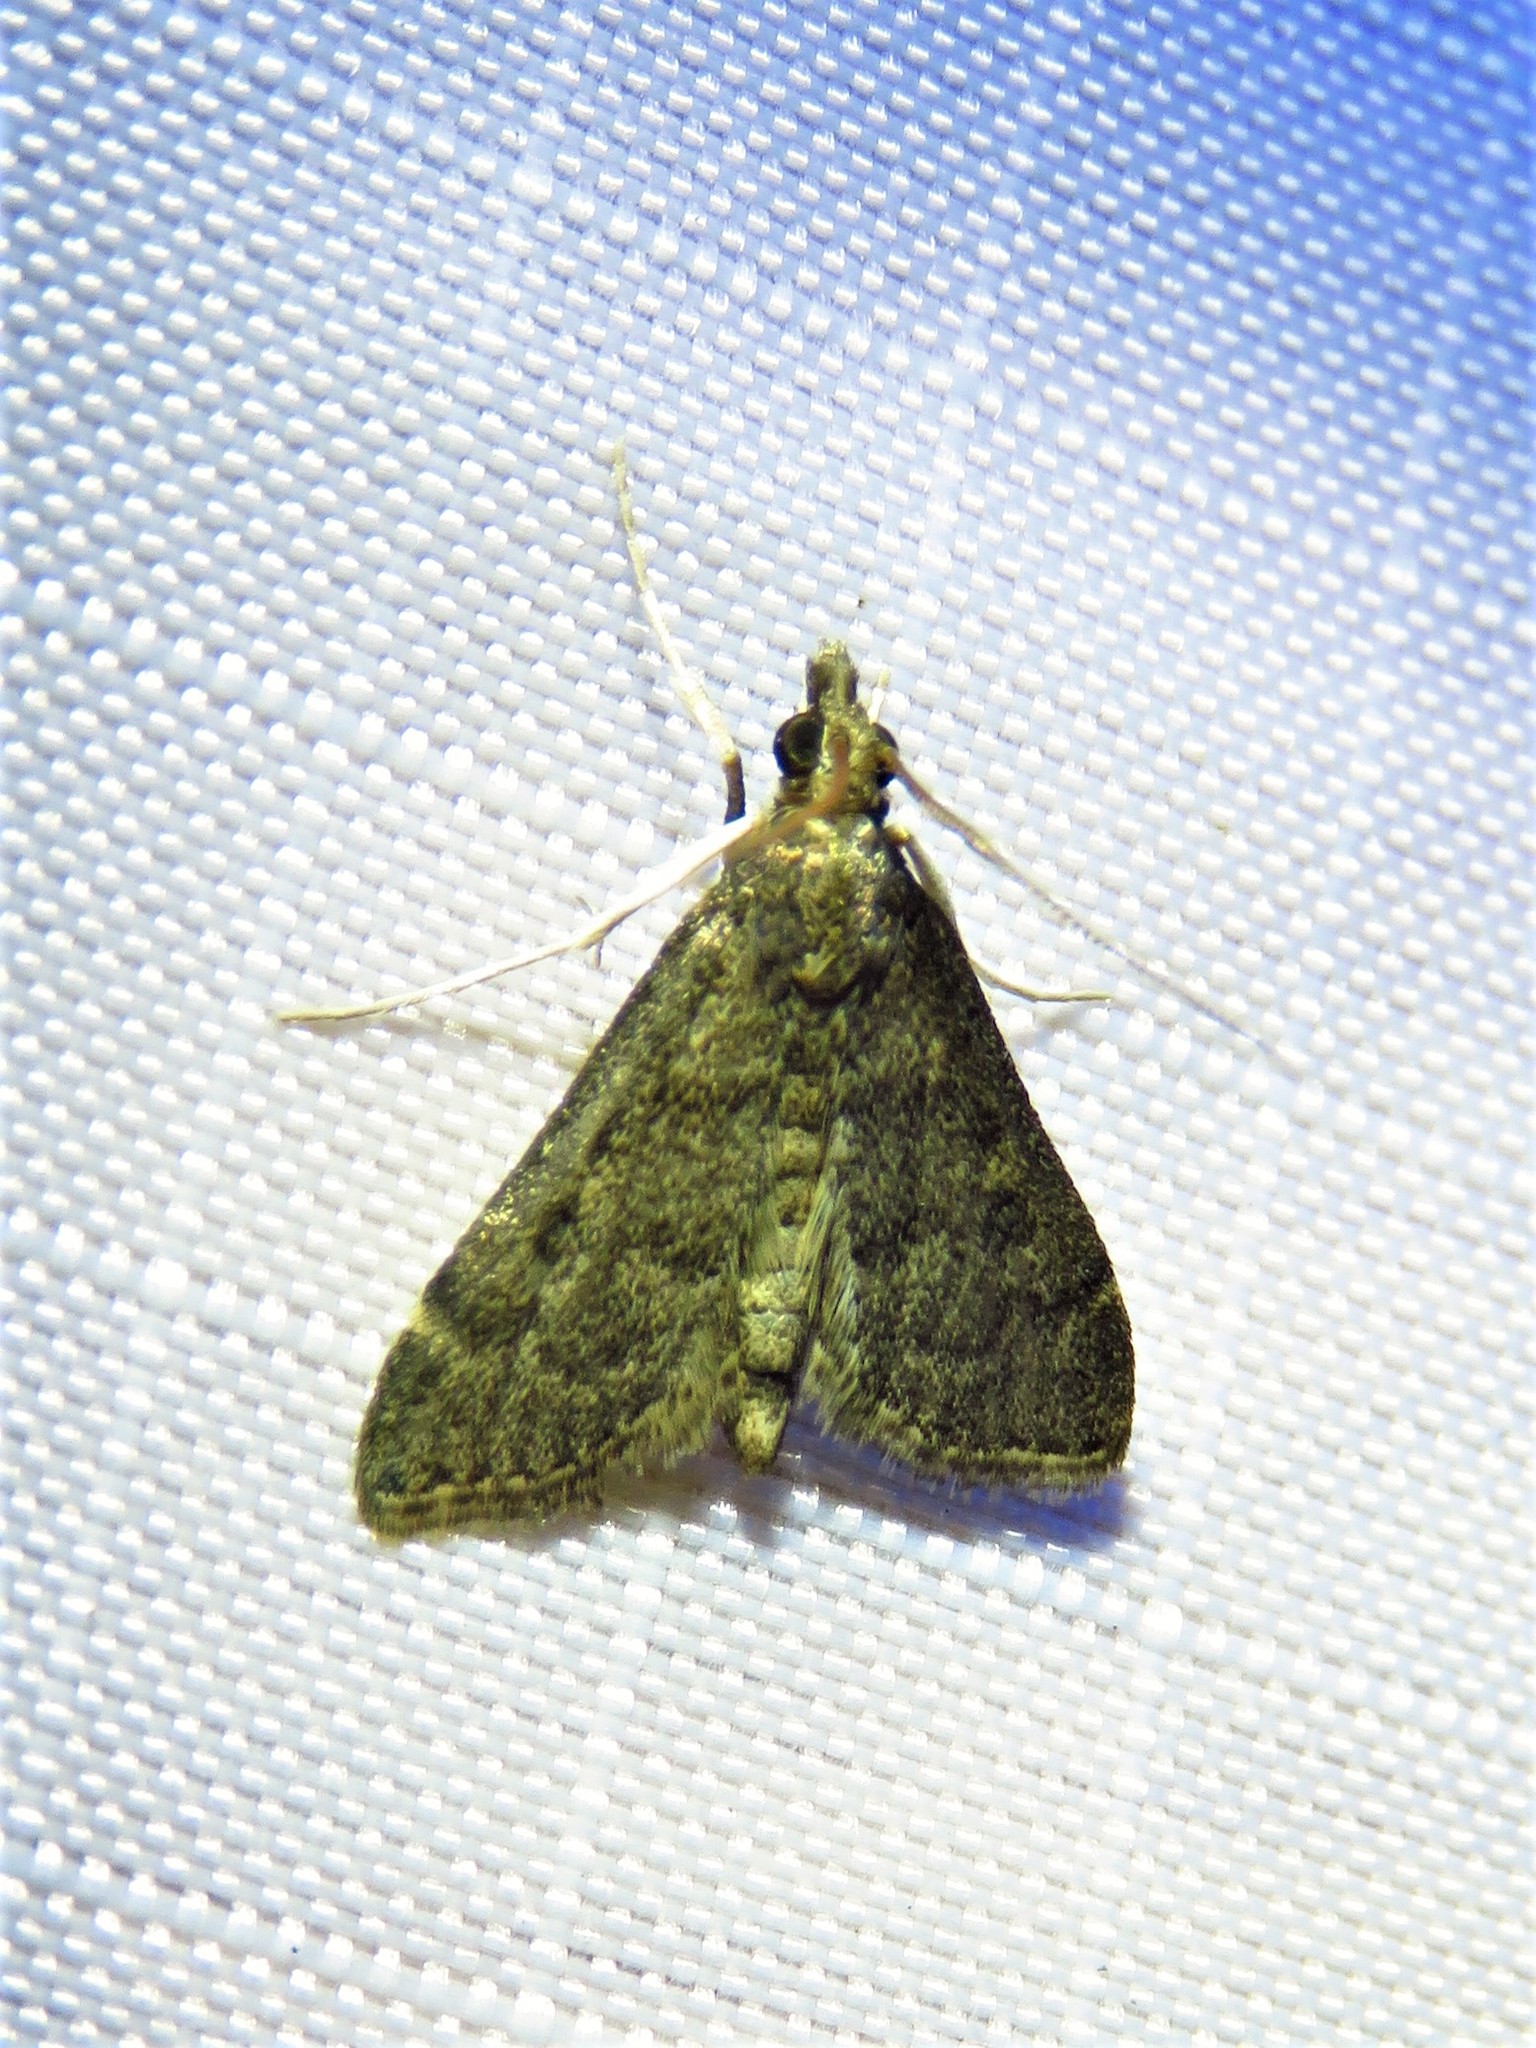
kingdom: Animalia
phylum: Arthropoda
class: Insecta
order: Lepidoptera
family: Crambidae
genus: Steniodes
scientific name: Steniodes declivalis
